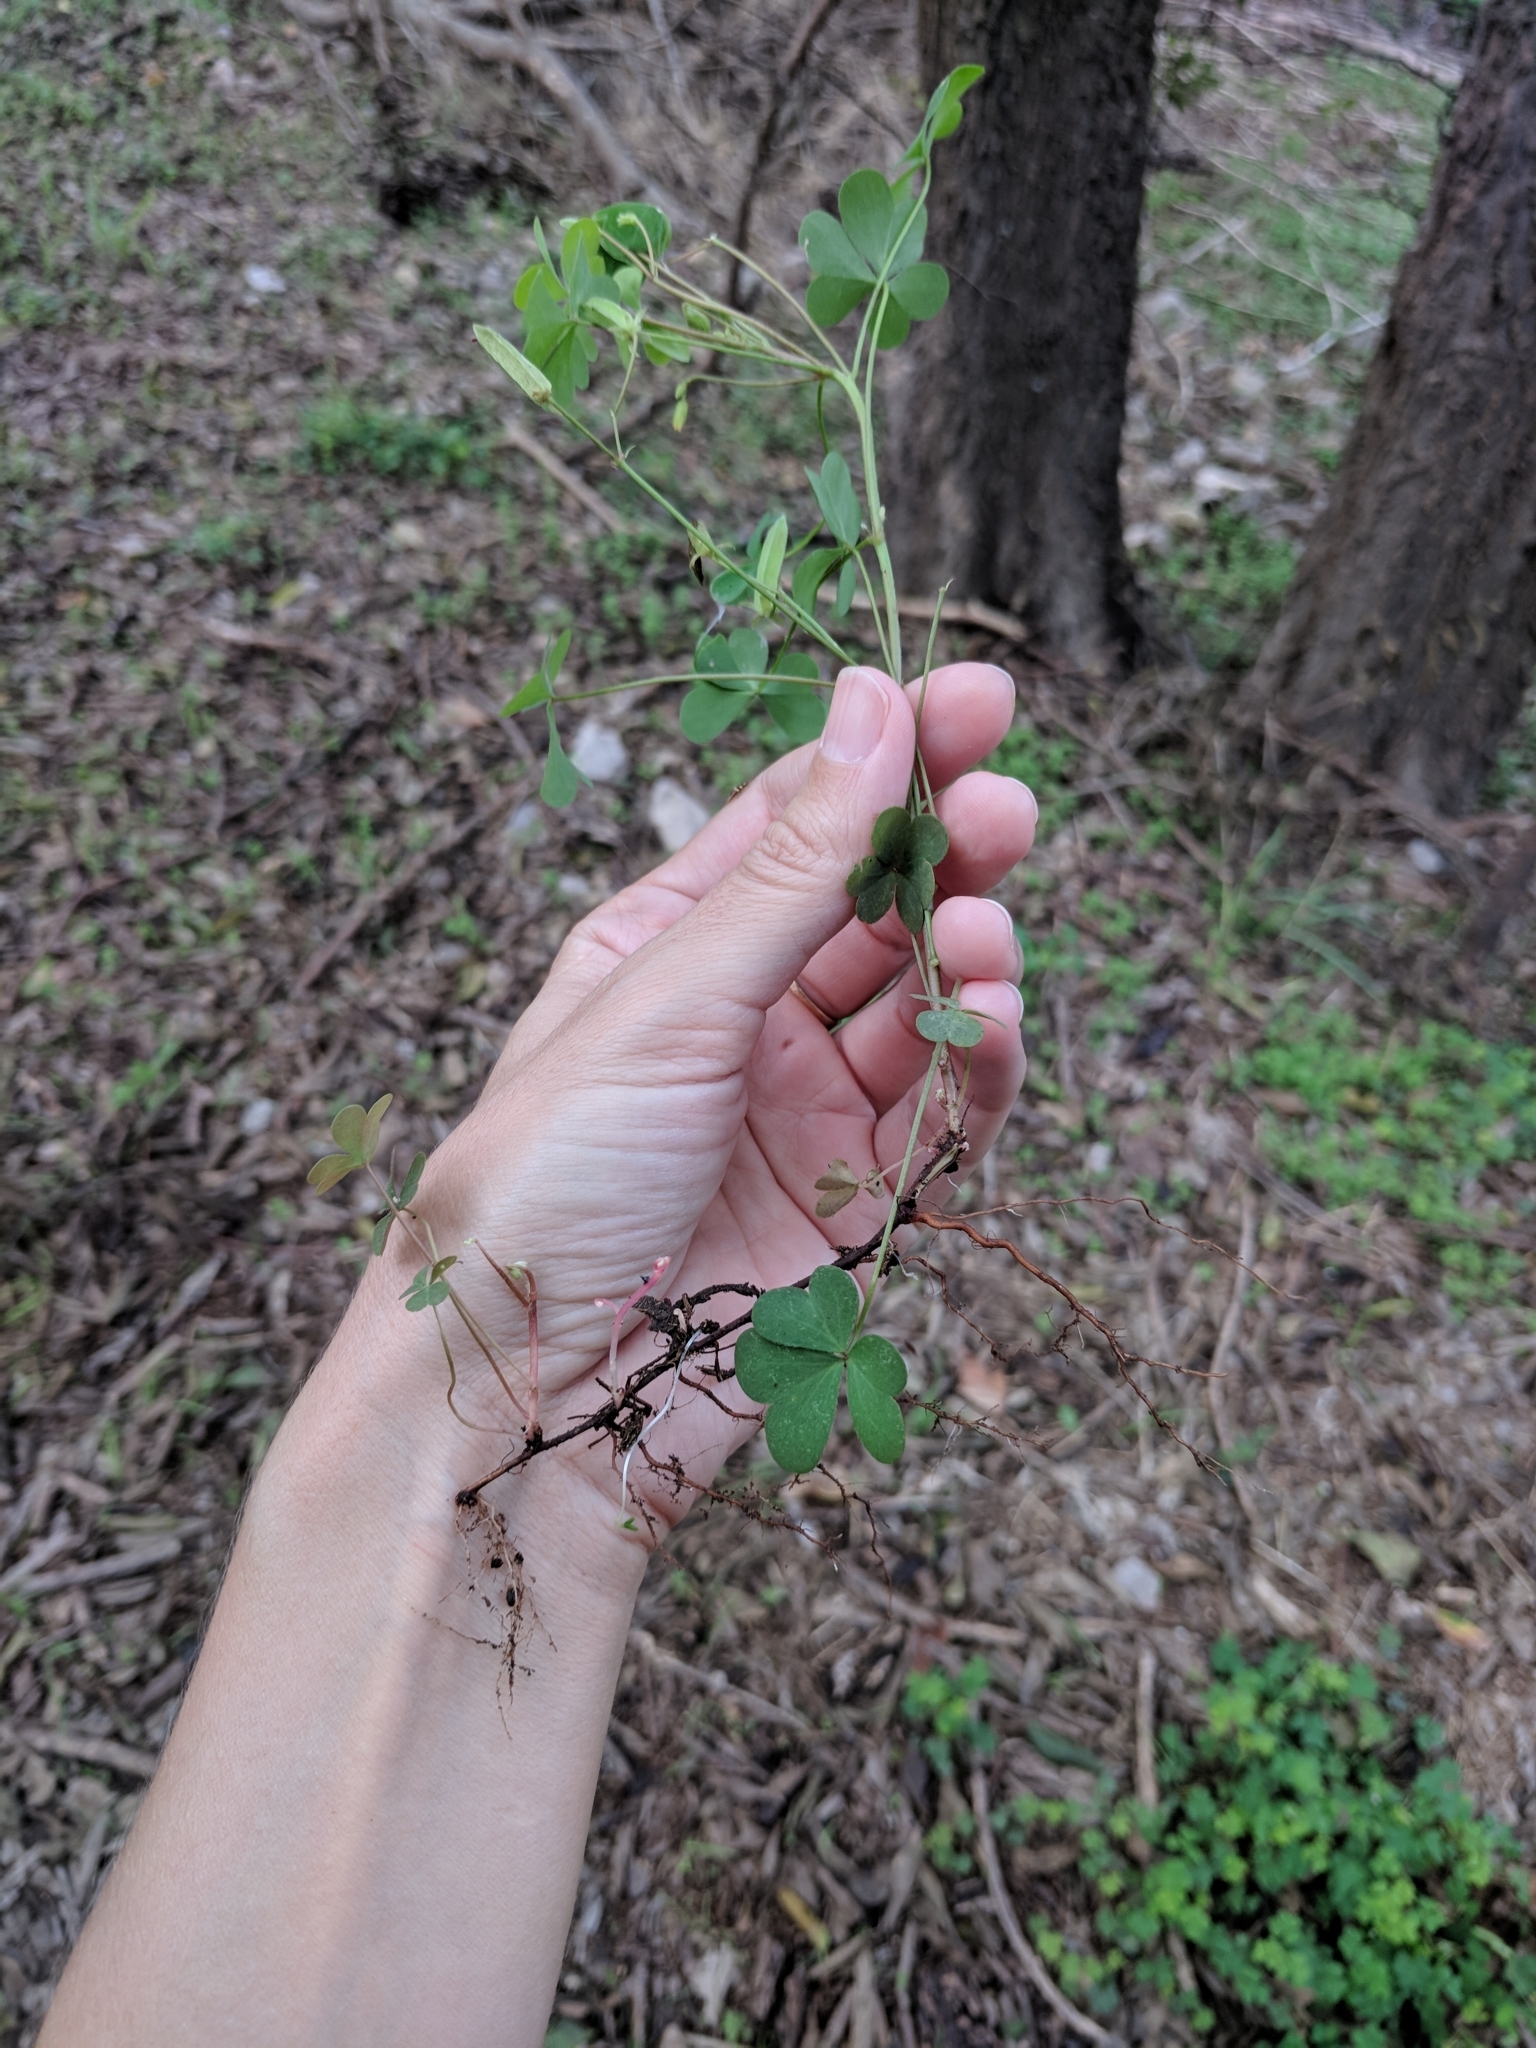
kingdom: Plantae
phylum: Tracheophyta
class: Magnoliopsida
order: Oxalidales
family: Oxalidaceae
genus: Oxalis
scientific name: Oxalis dillenii
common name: Sussex yellow-sorrel
